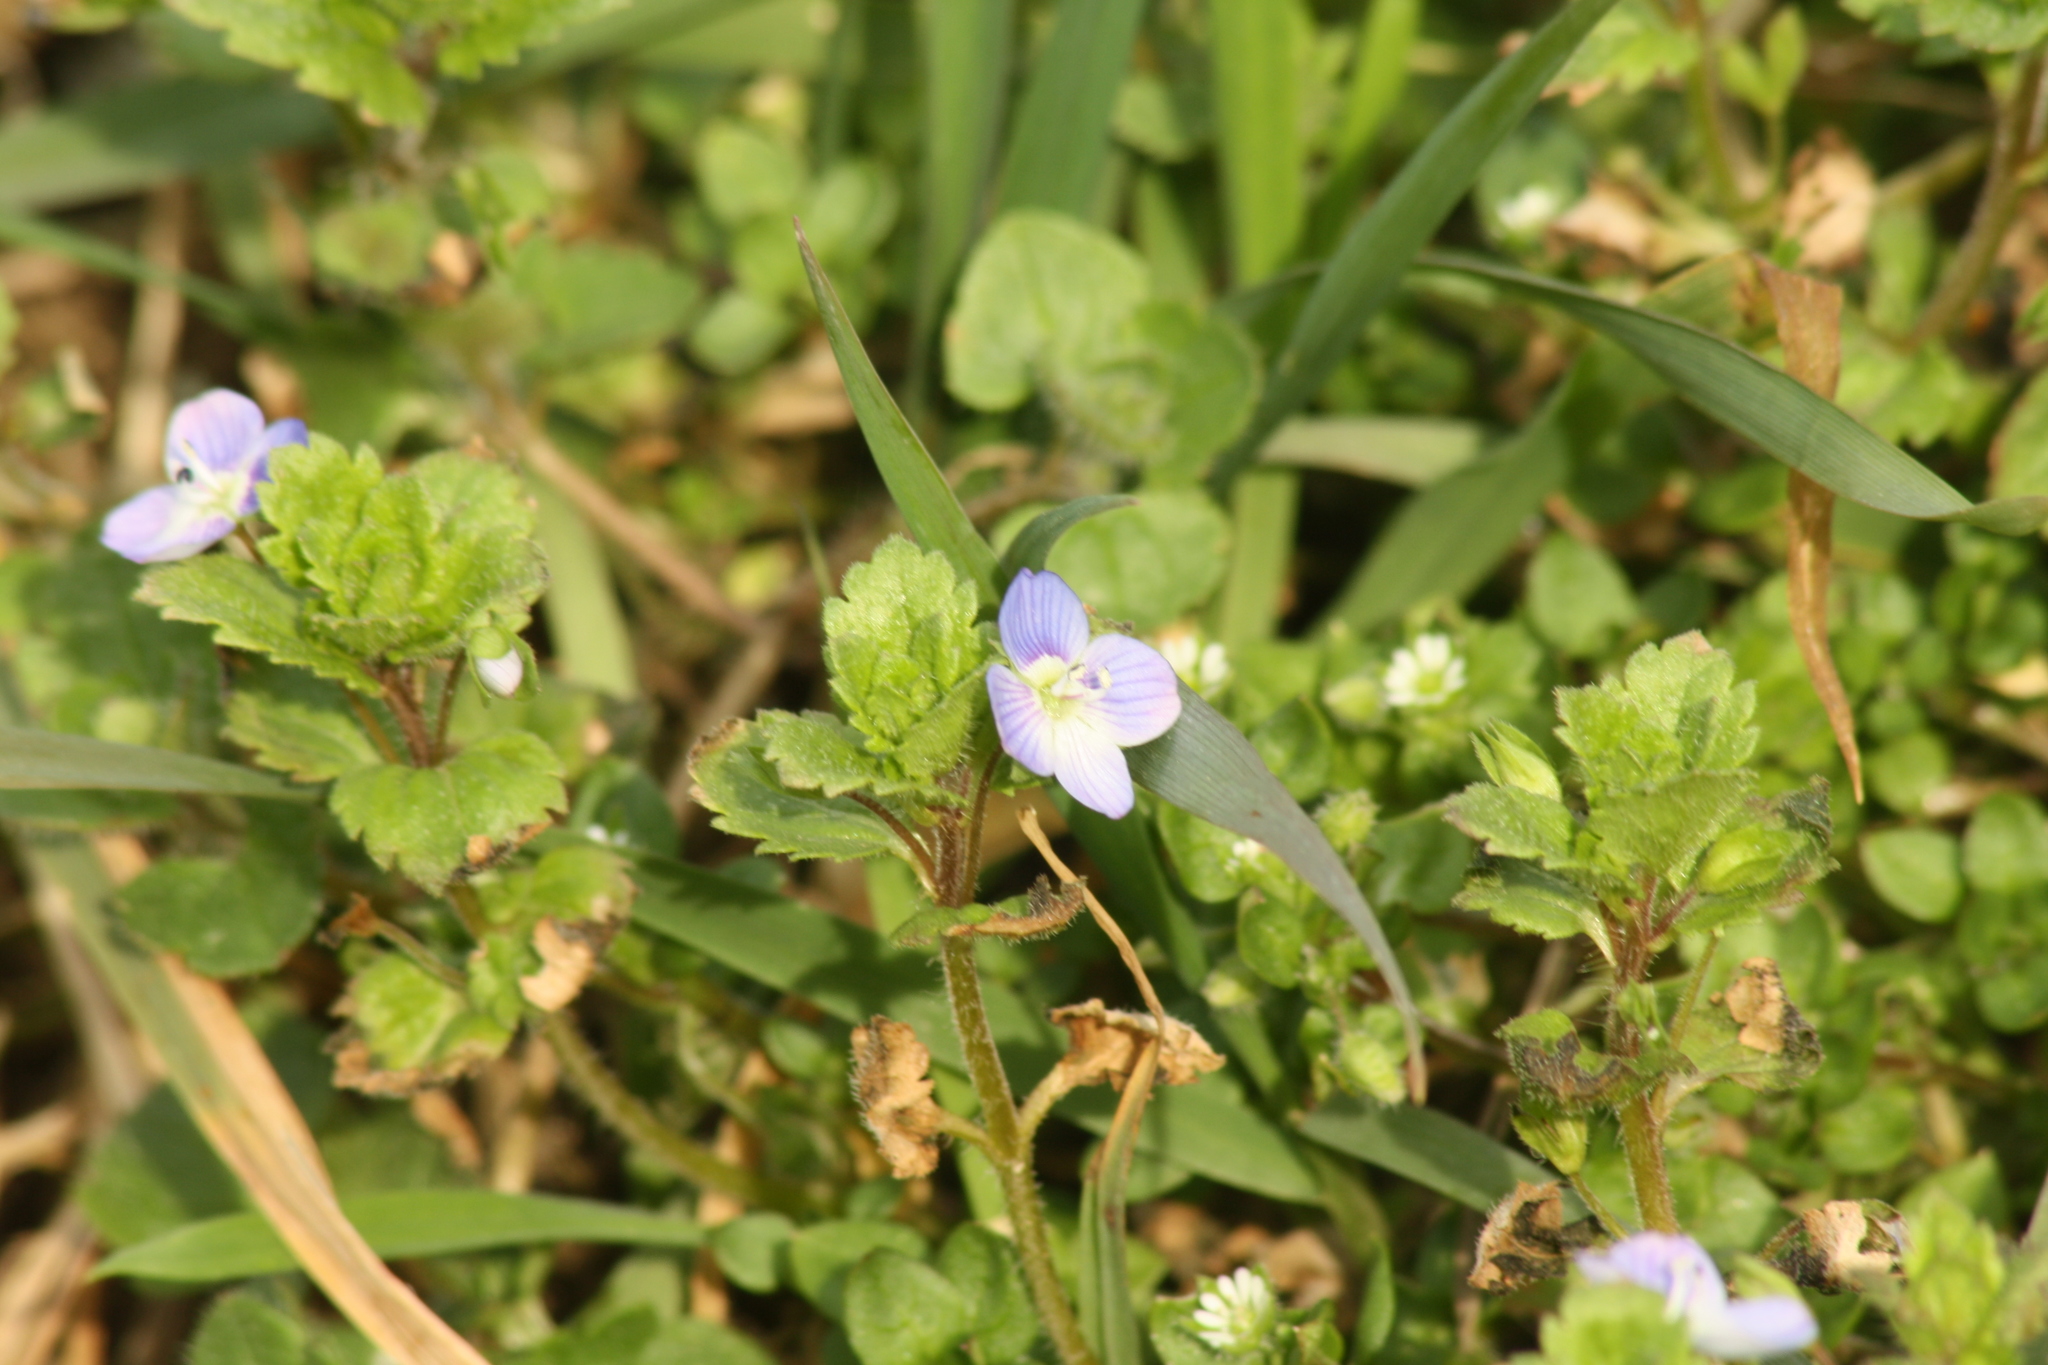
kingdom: Plantae
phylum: Tracheophyta
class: Magnoliopsida
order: Lamiales
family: Plantaginaceae
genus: Veronica
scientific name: Veronica persica
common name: Common field-speedwell
